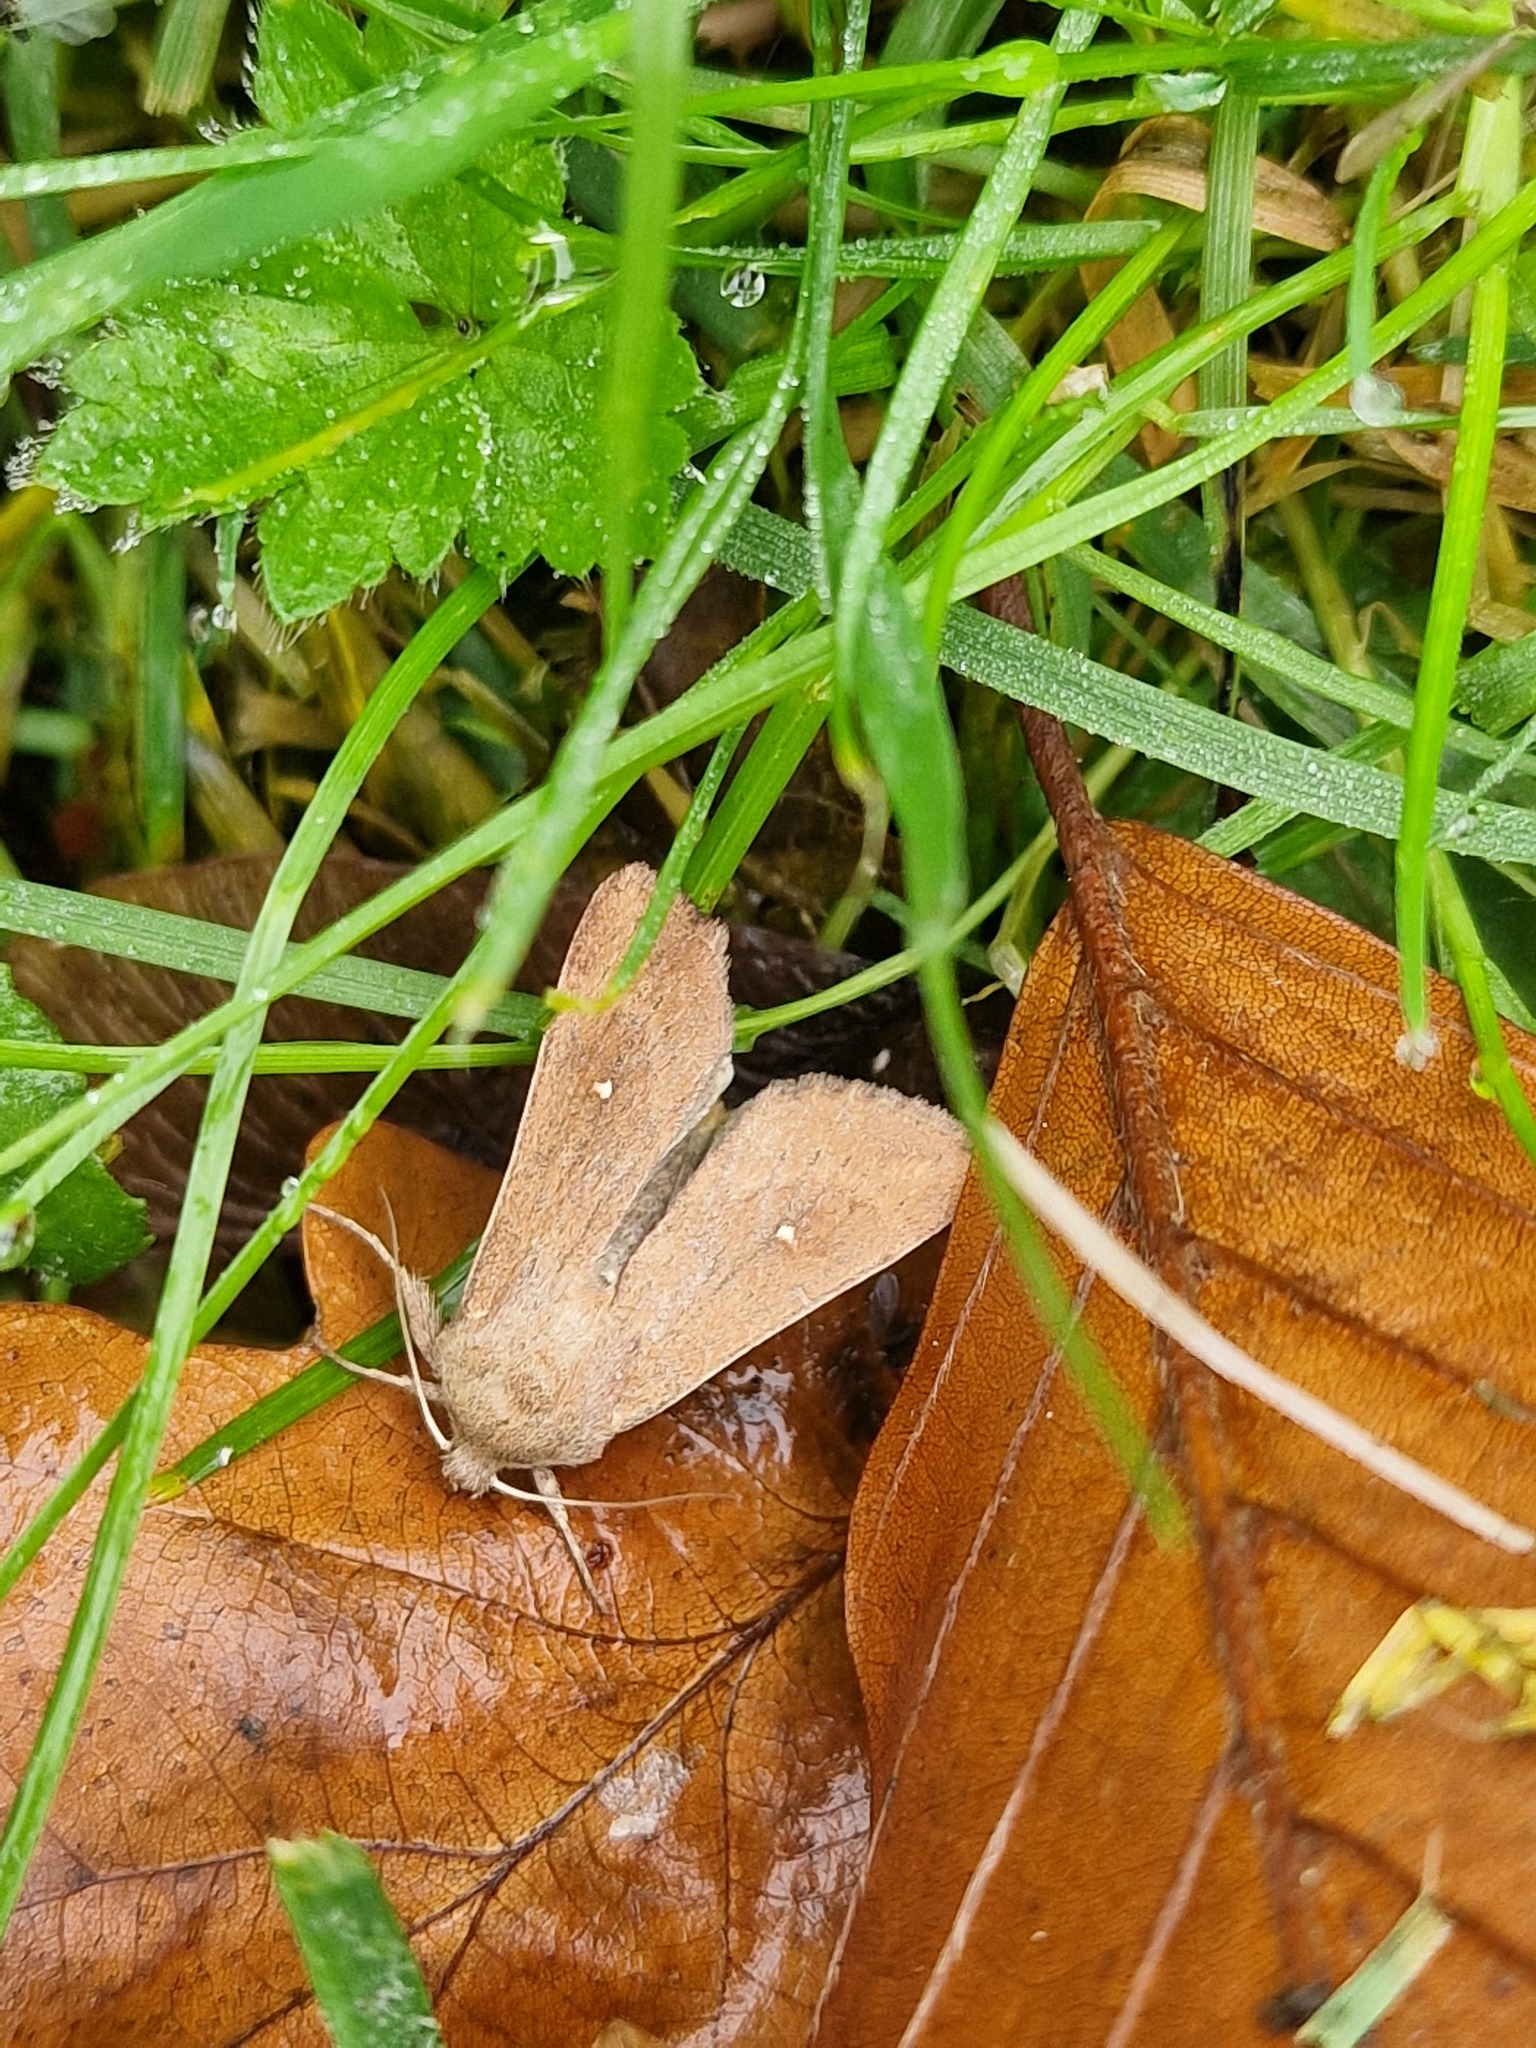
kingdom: Animalia
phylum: Arthropoda
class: Insecta
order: Lepidoptera
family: Noctuidae
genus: Mythimna
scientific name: Mythimna albipuncta
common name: White-point
